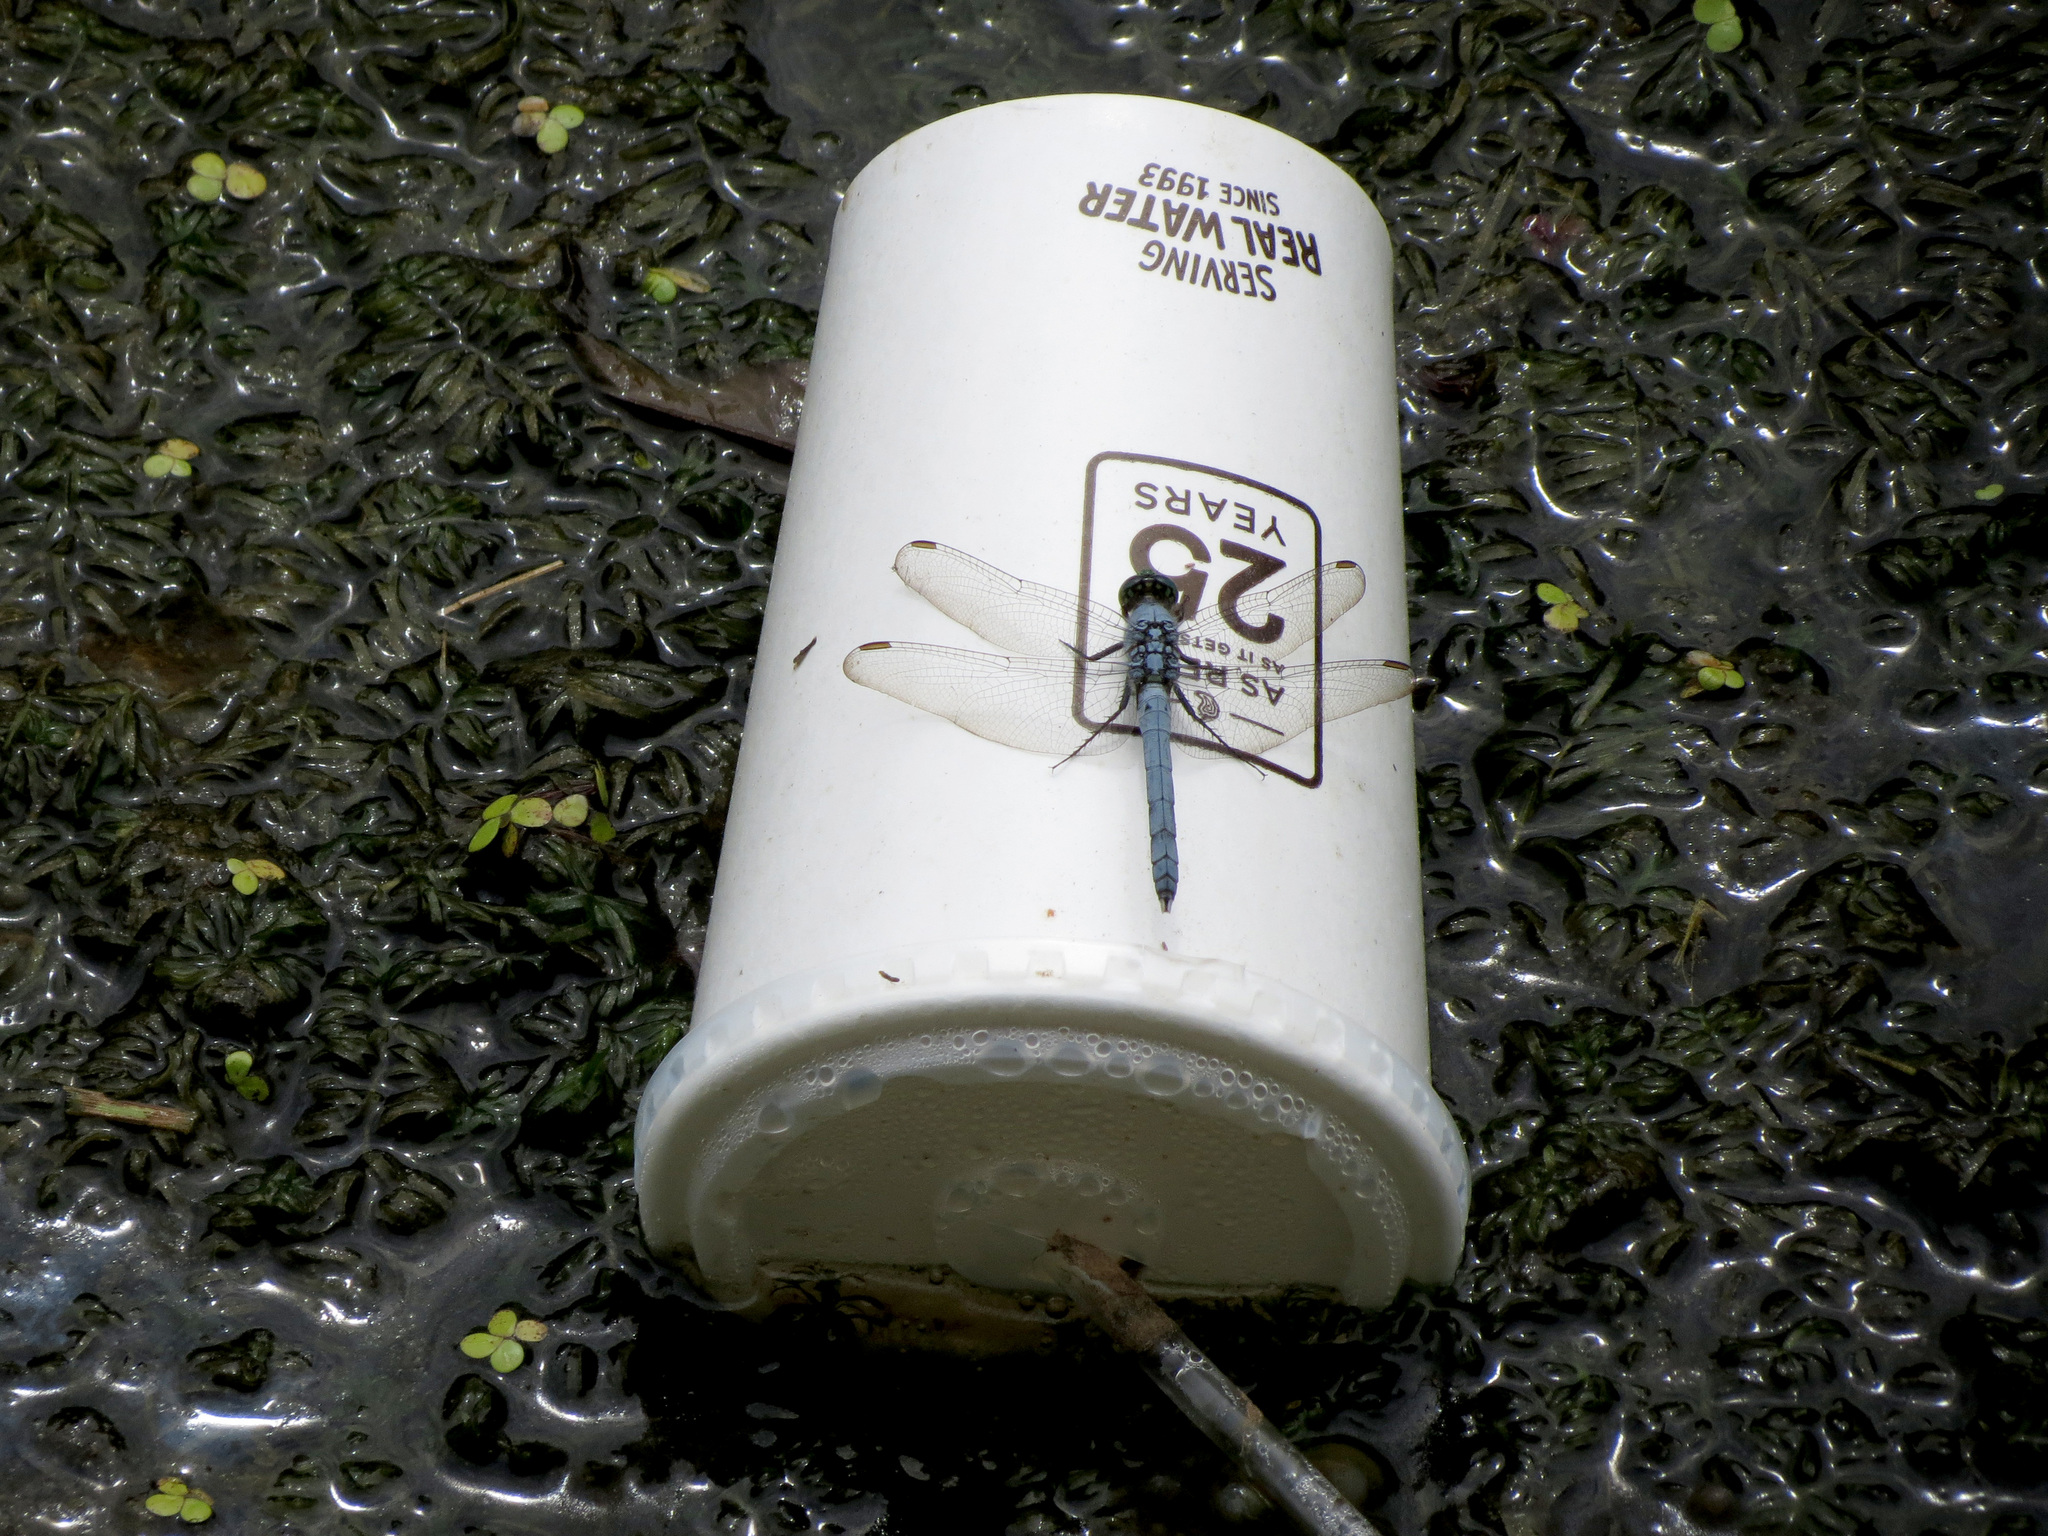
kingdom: Animalia
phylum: Arthropoda
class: Insecta
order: Odonata
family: Libellulidae
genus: Erythemis
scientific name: Erythemis simplicicollis
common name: Eastern pondhawk
